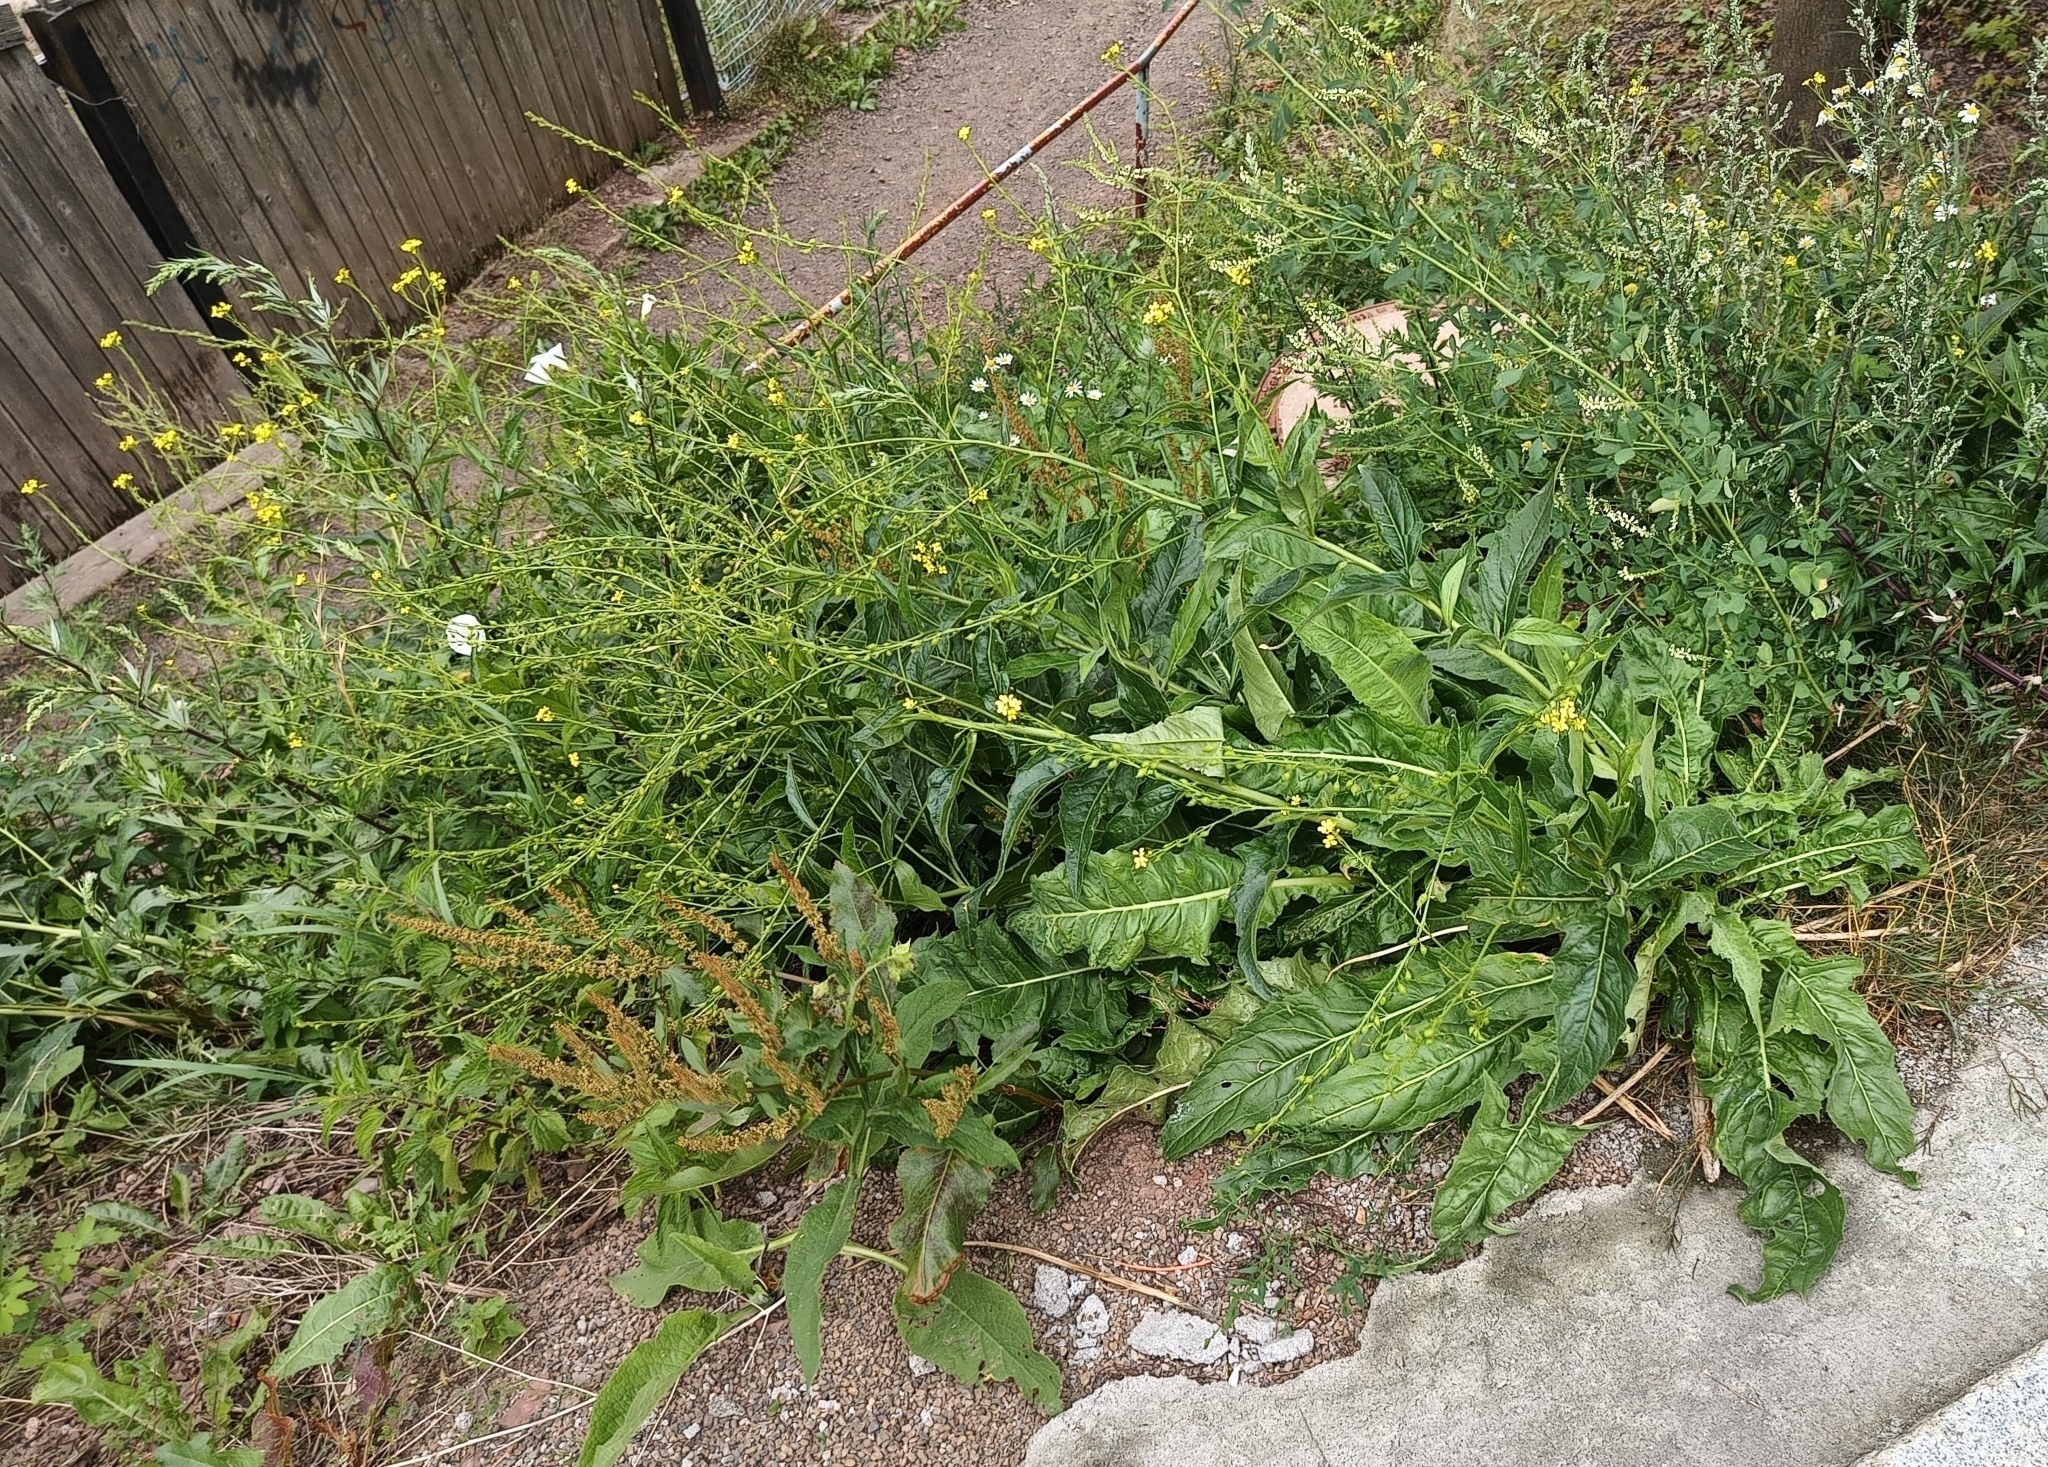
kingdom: Plantae
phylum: Tracheophyta
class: Magnoliopsida
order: Brassicales
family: Brassicaceae
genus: Bunias
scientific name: Bunias orientalis
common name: Warty-cabbage
